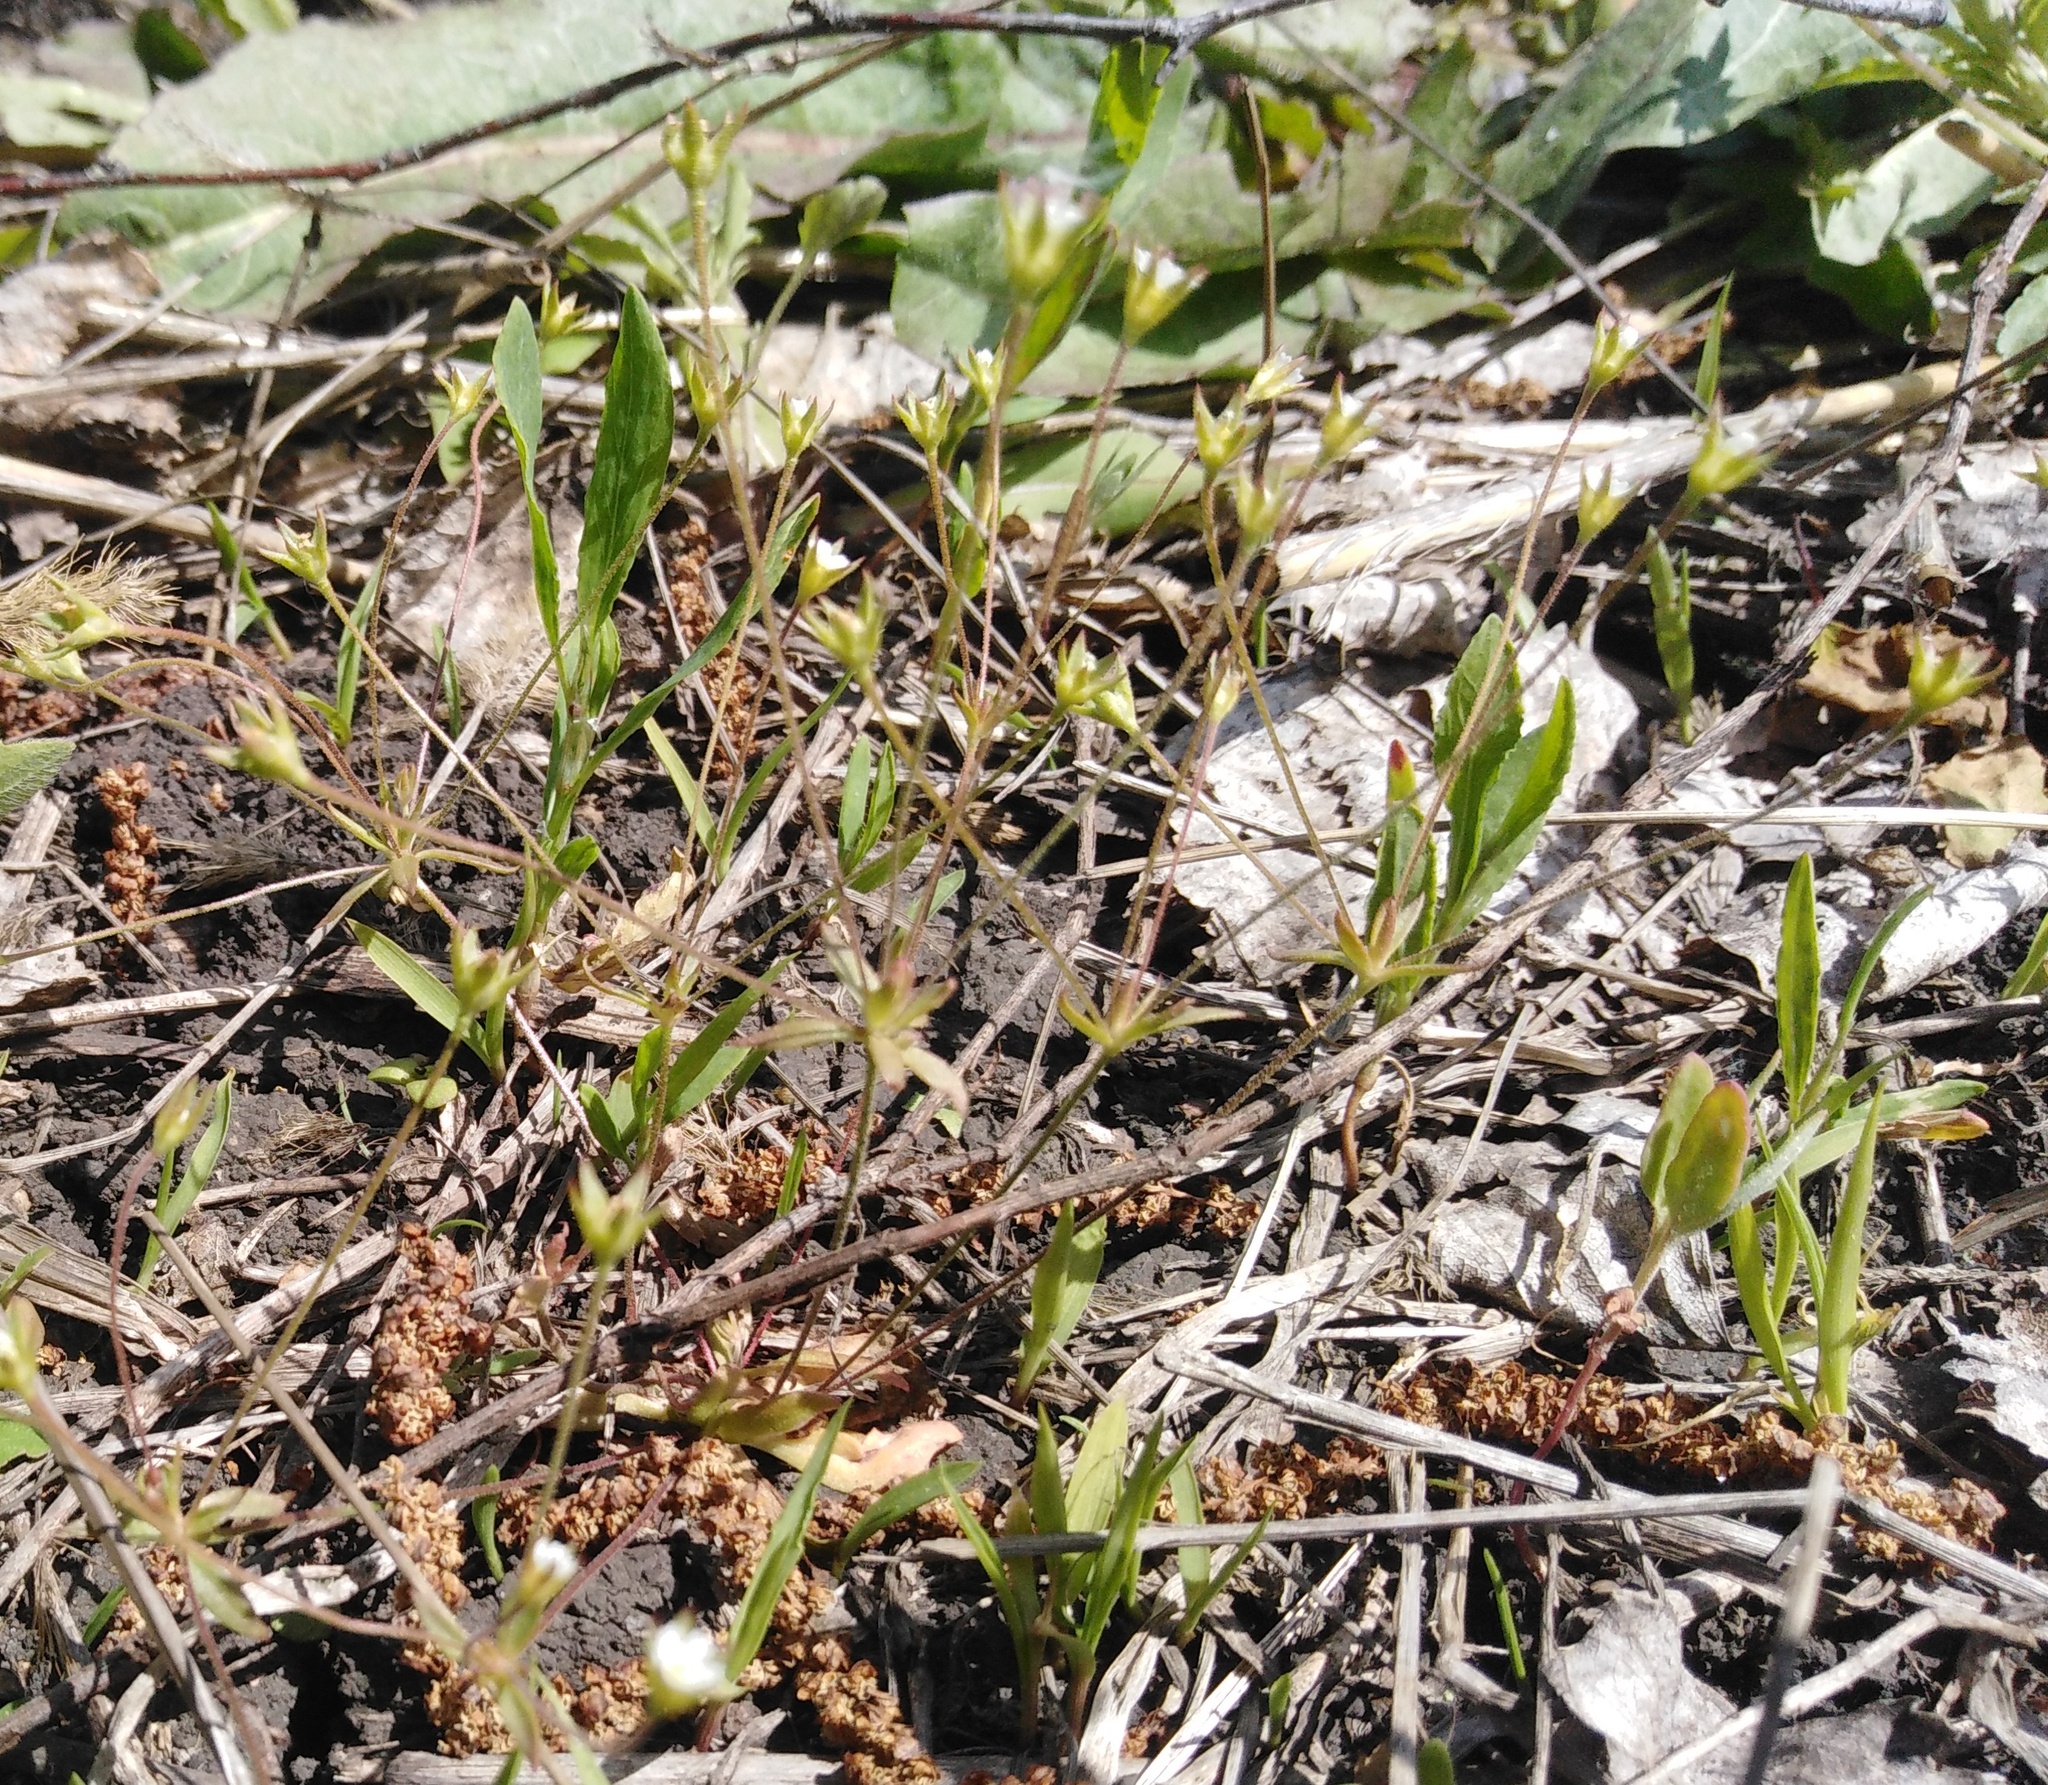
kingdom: Plantae
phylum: Tracheophyta
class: Magnoliopsida
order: Ericales
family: Primulaceae
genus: Androsace
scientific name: Androsace elongata
